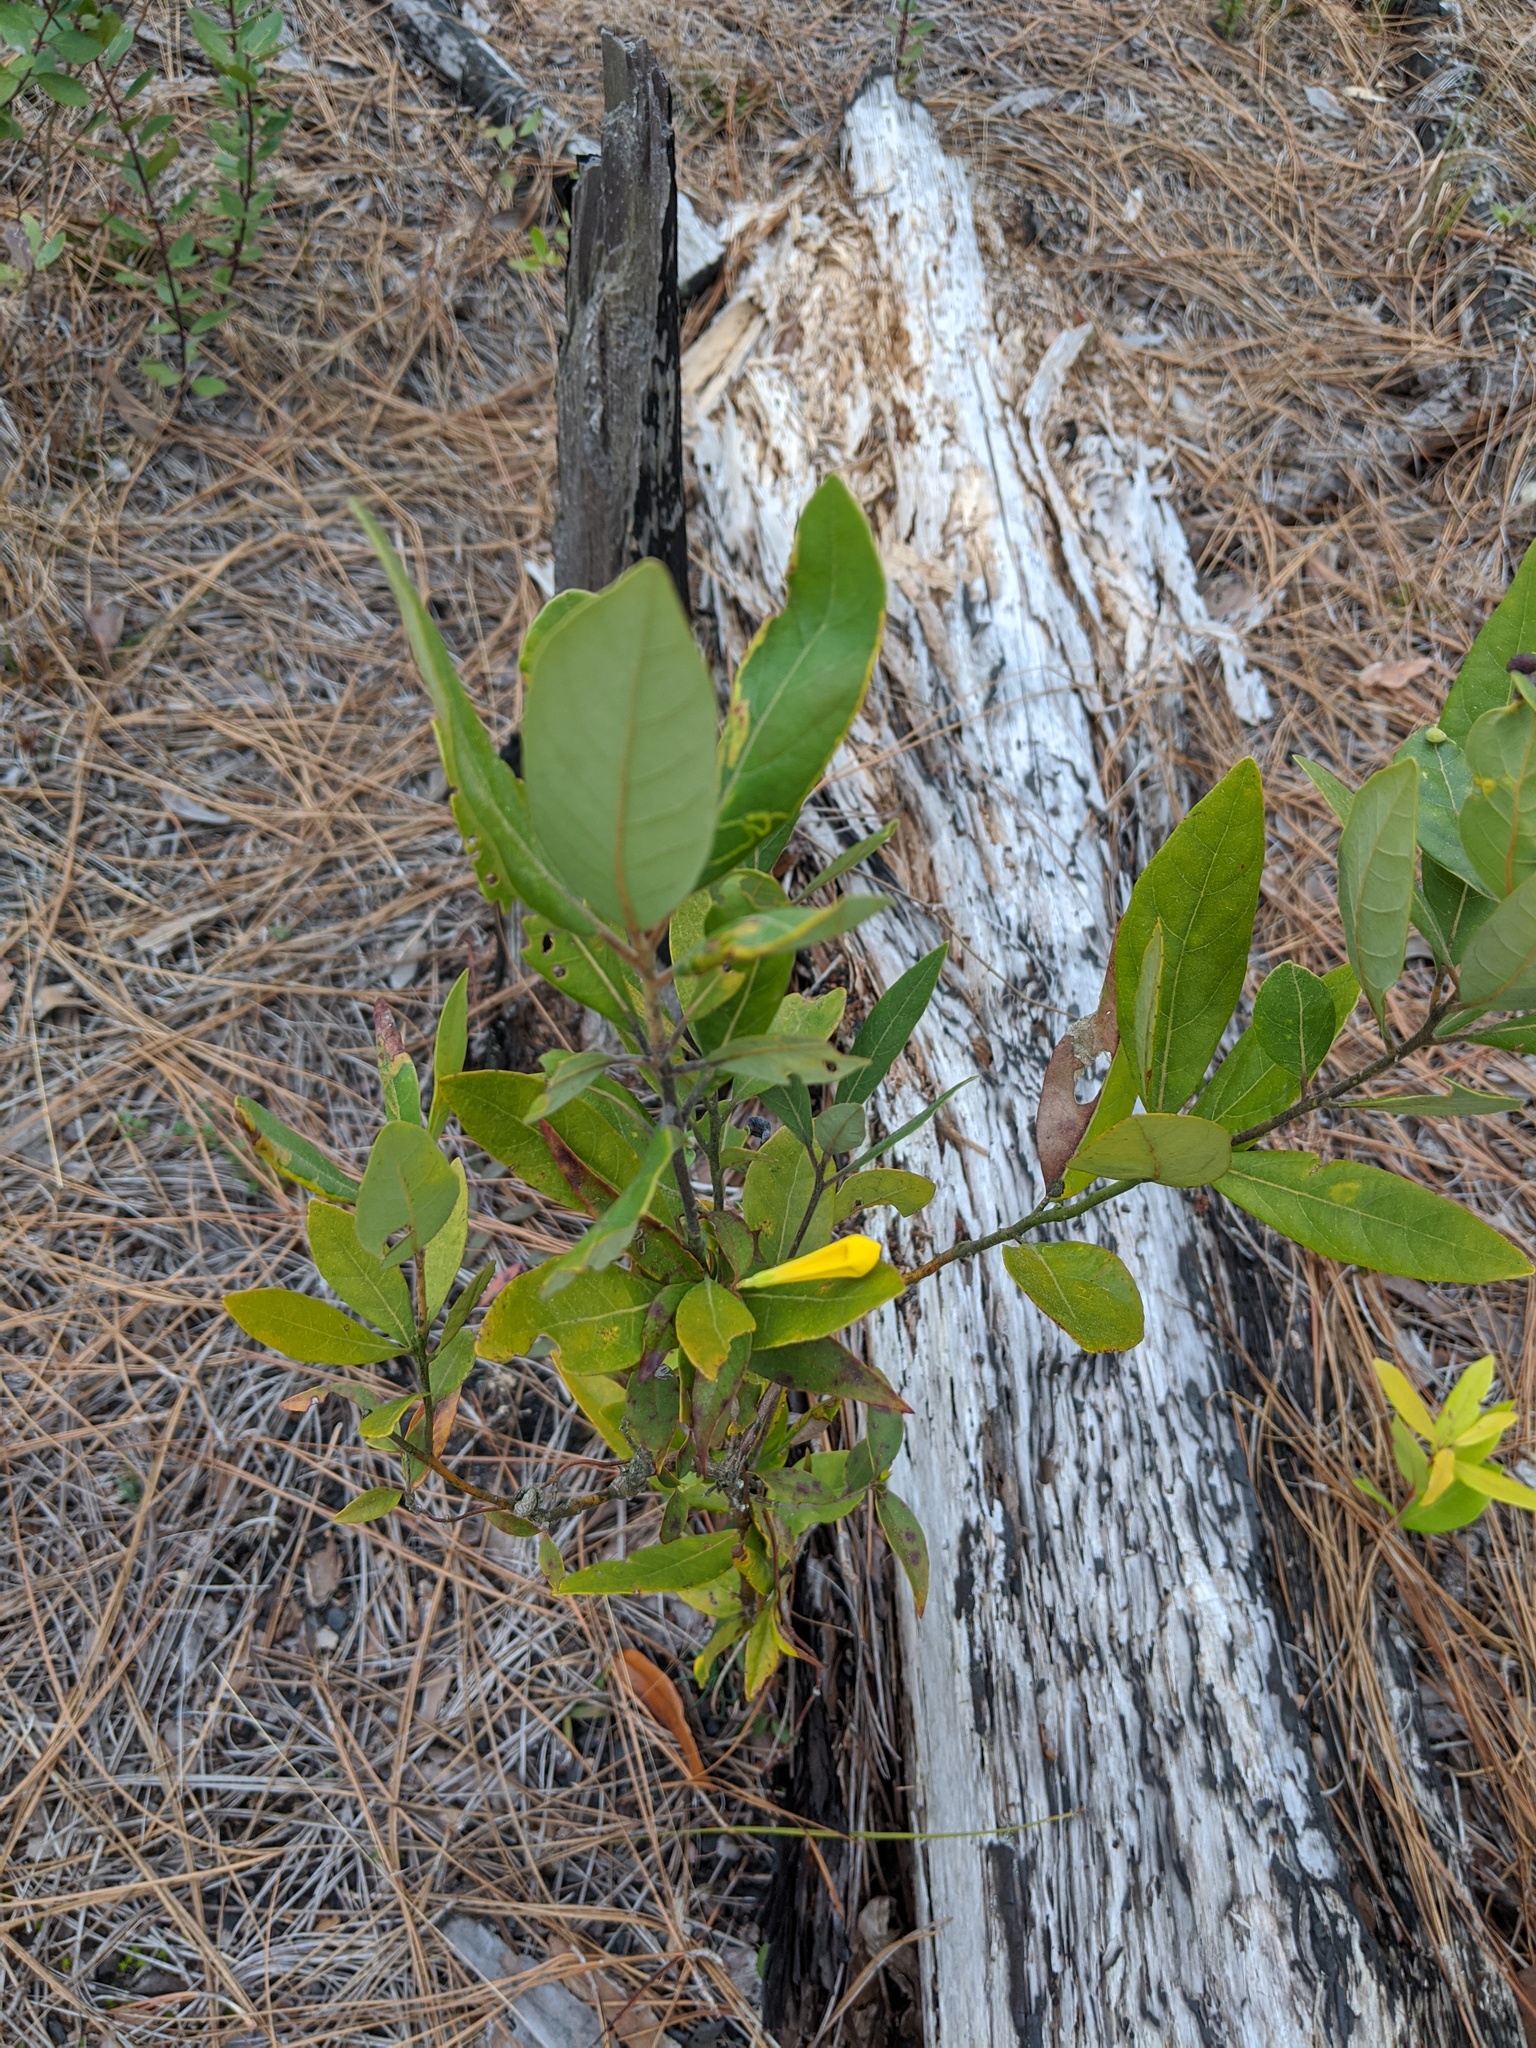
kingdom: Plantae
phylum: Tracheophyta
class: Magnoliopsida
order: Gentianales
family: Gelsemiaceae
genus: Gelsemium
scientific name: Gelsemium sempervirens
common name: Carolina-jasmine
